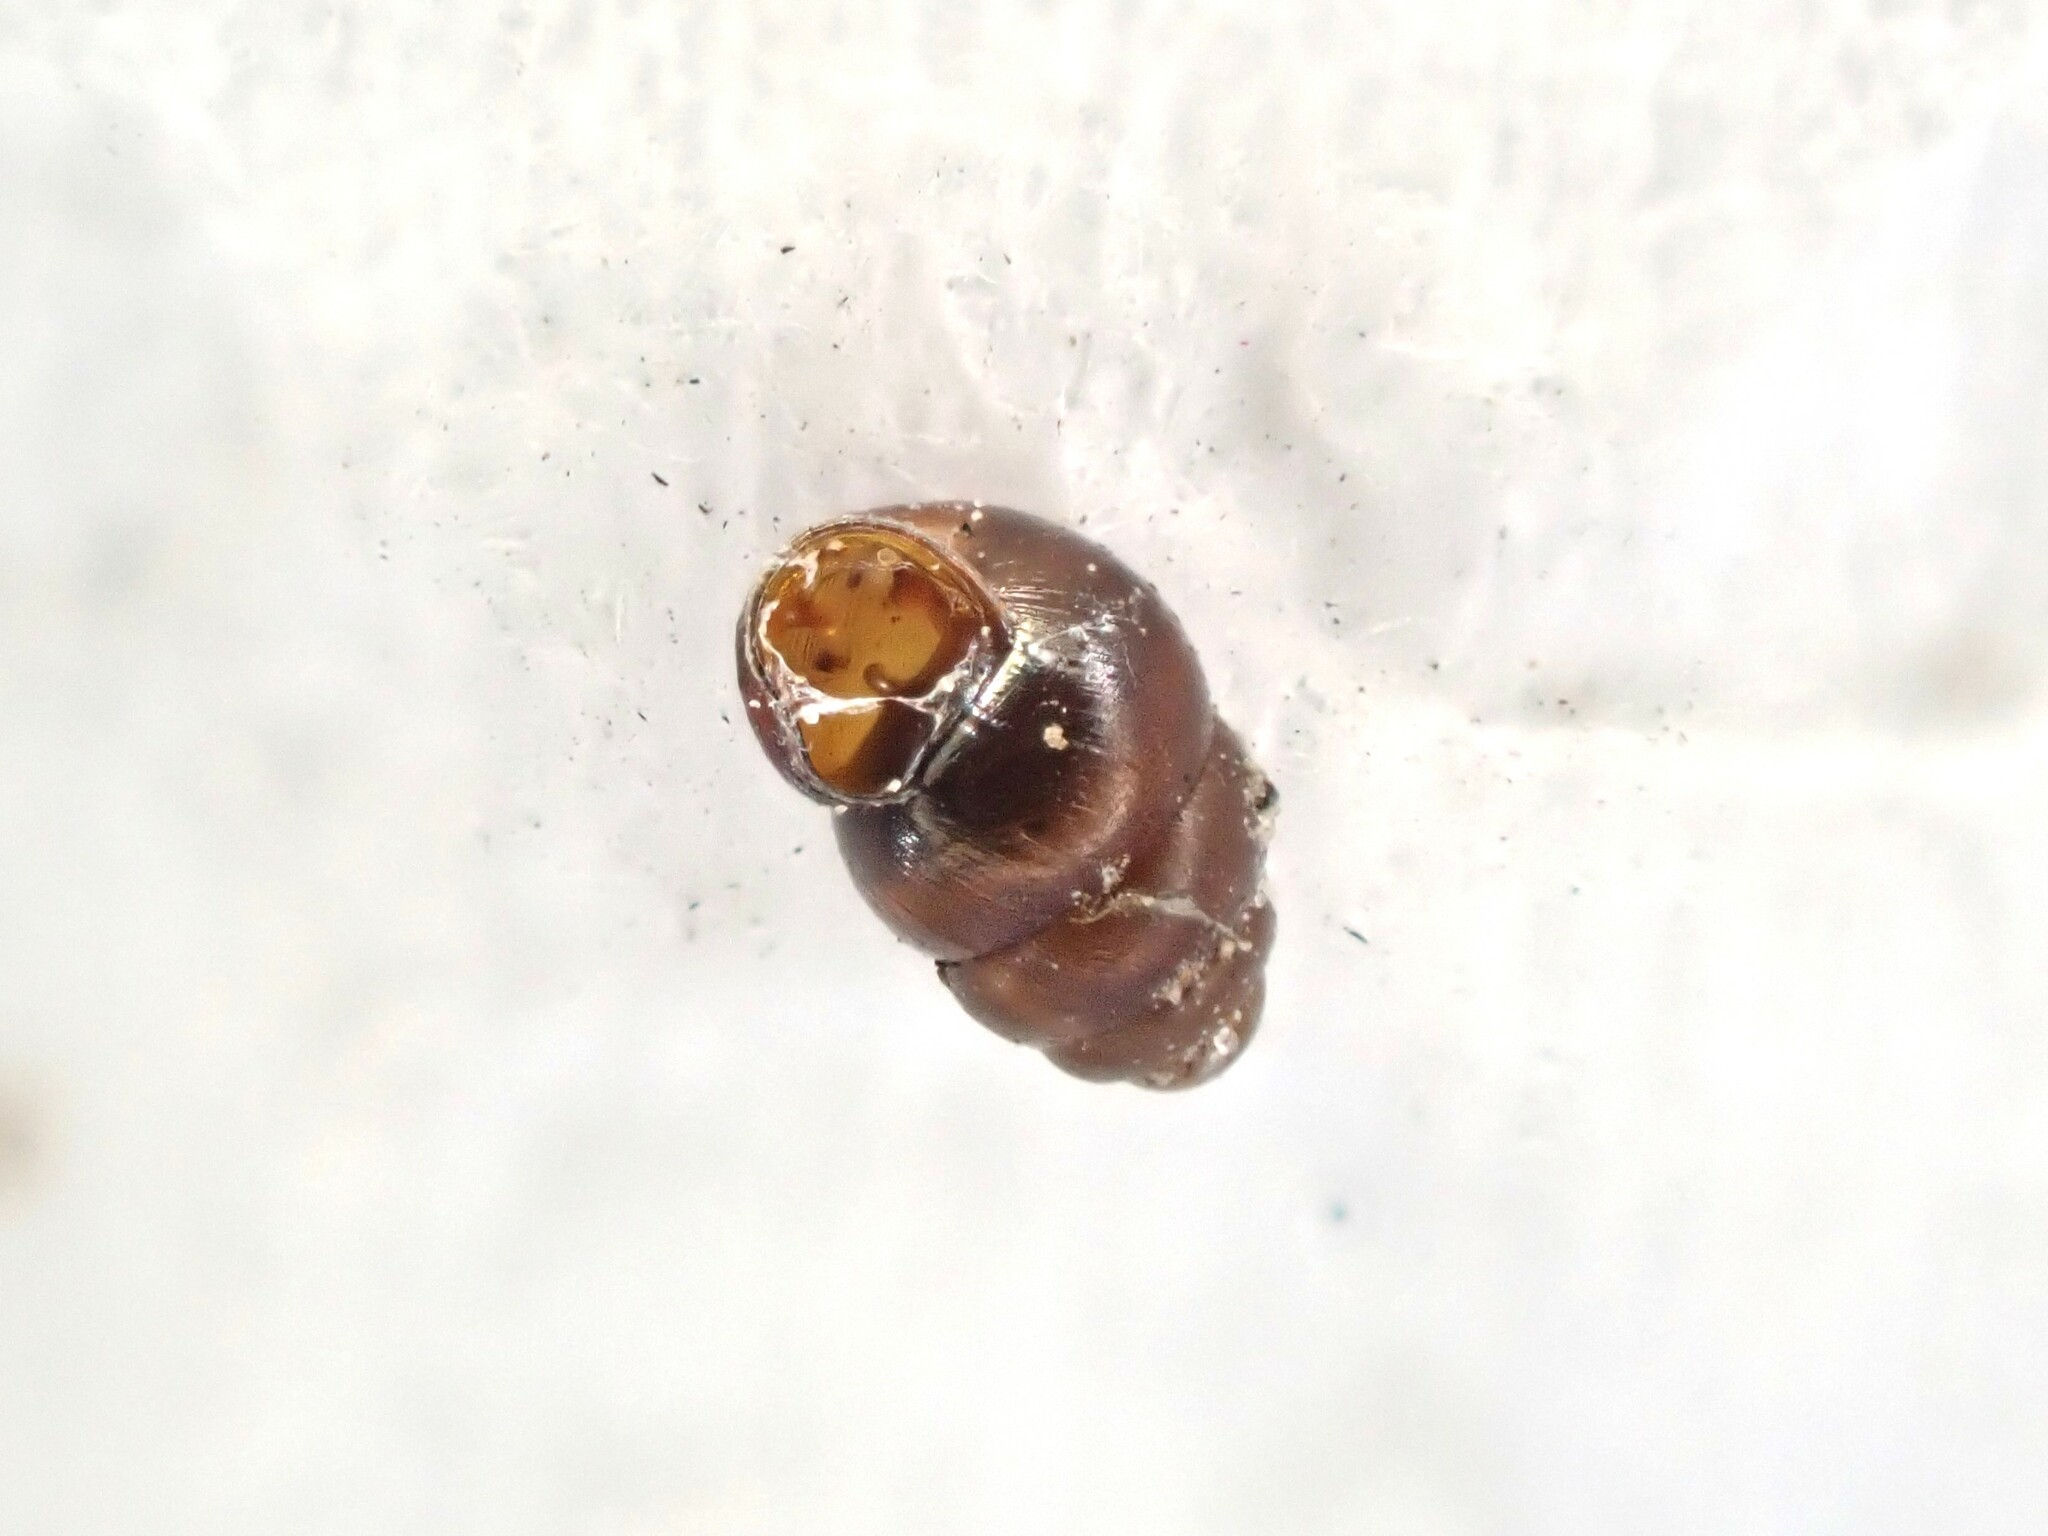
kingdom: Animalia
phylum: Mollusca
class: Gastropoda
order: Stylommatophora
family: Vertiginidae
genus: Vertigo
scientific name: Vertigo ovata
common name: Grassland whorl snail
